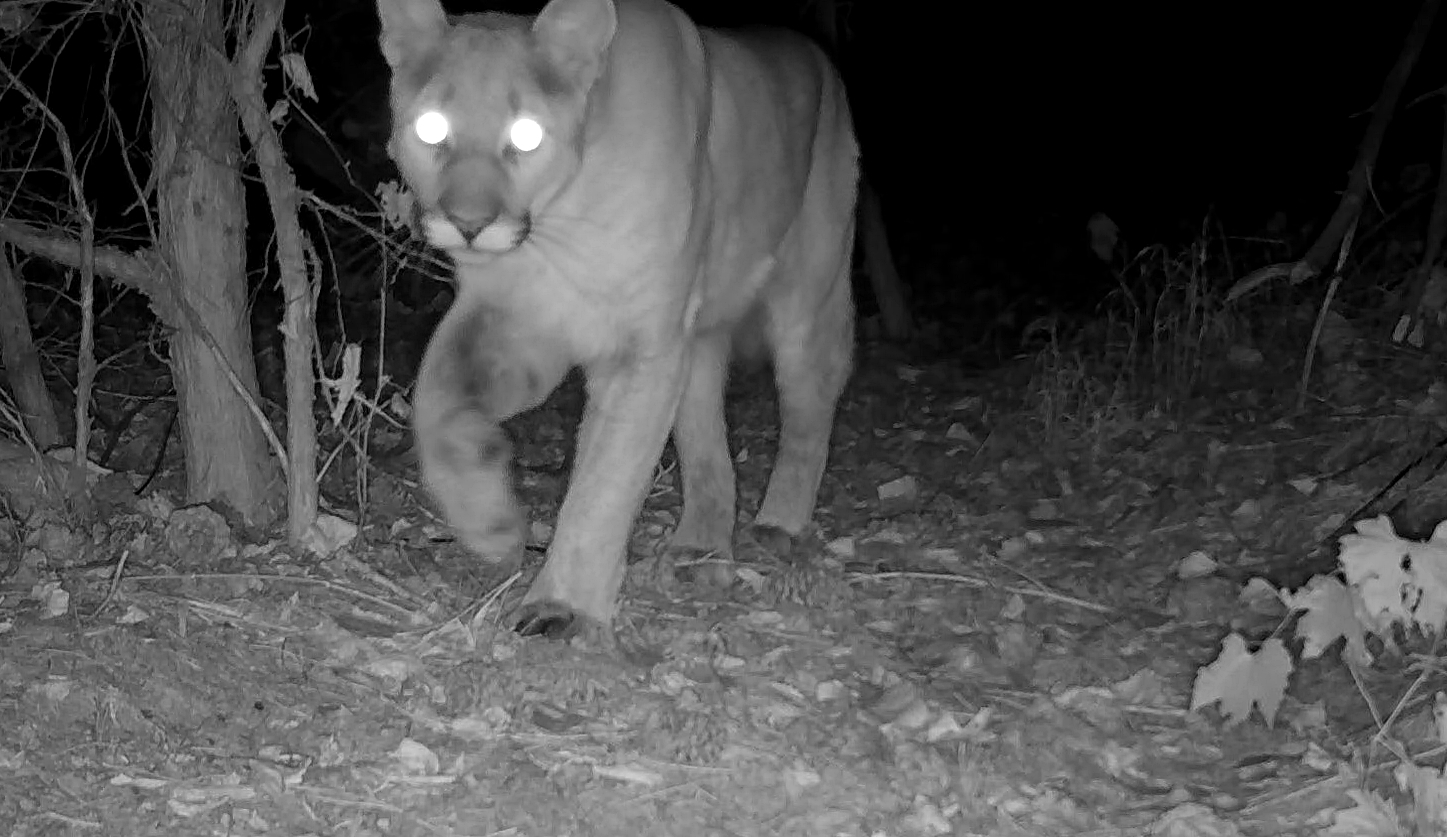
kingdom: Animalia
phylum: Chordata
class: Mammalia
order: Carnivora
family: Felidae
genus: Puma
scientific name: Puma concolor
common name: Puma
